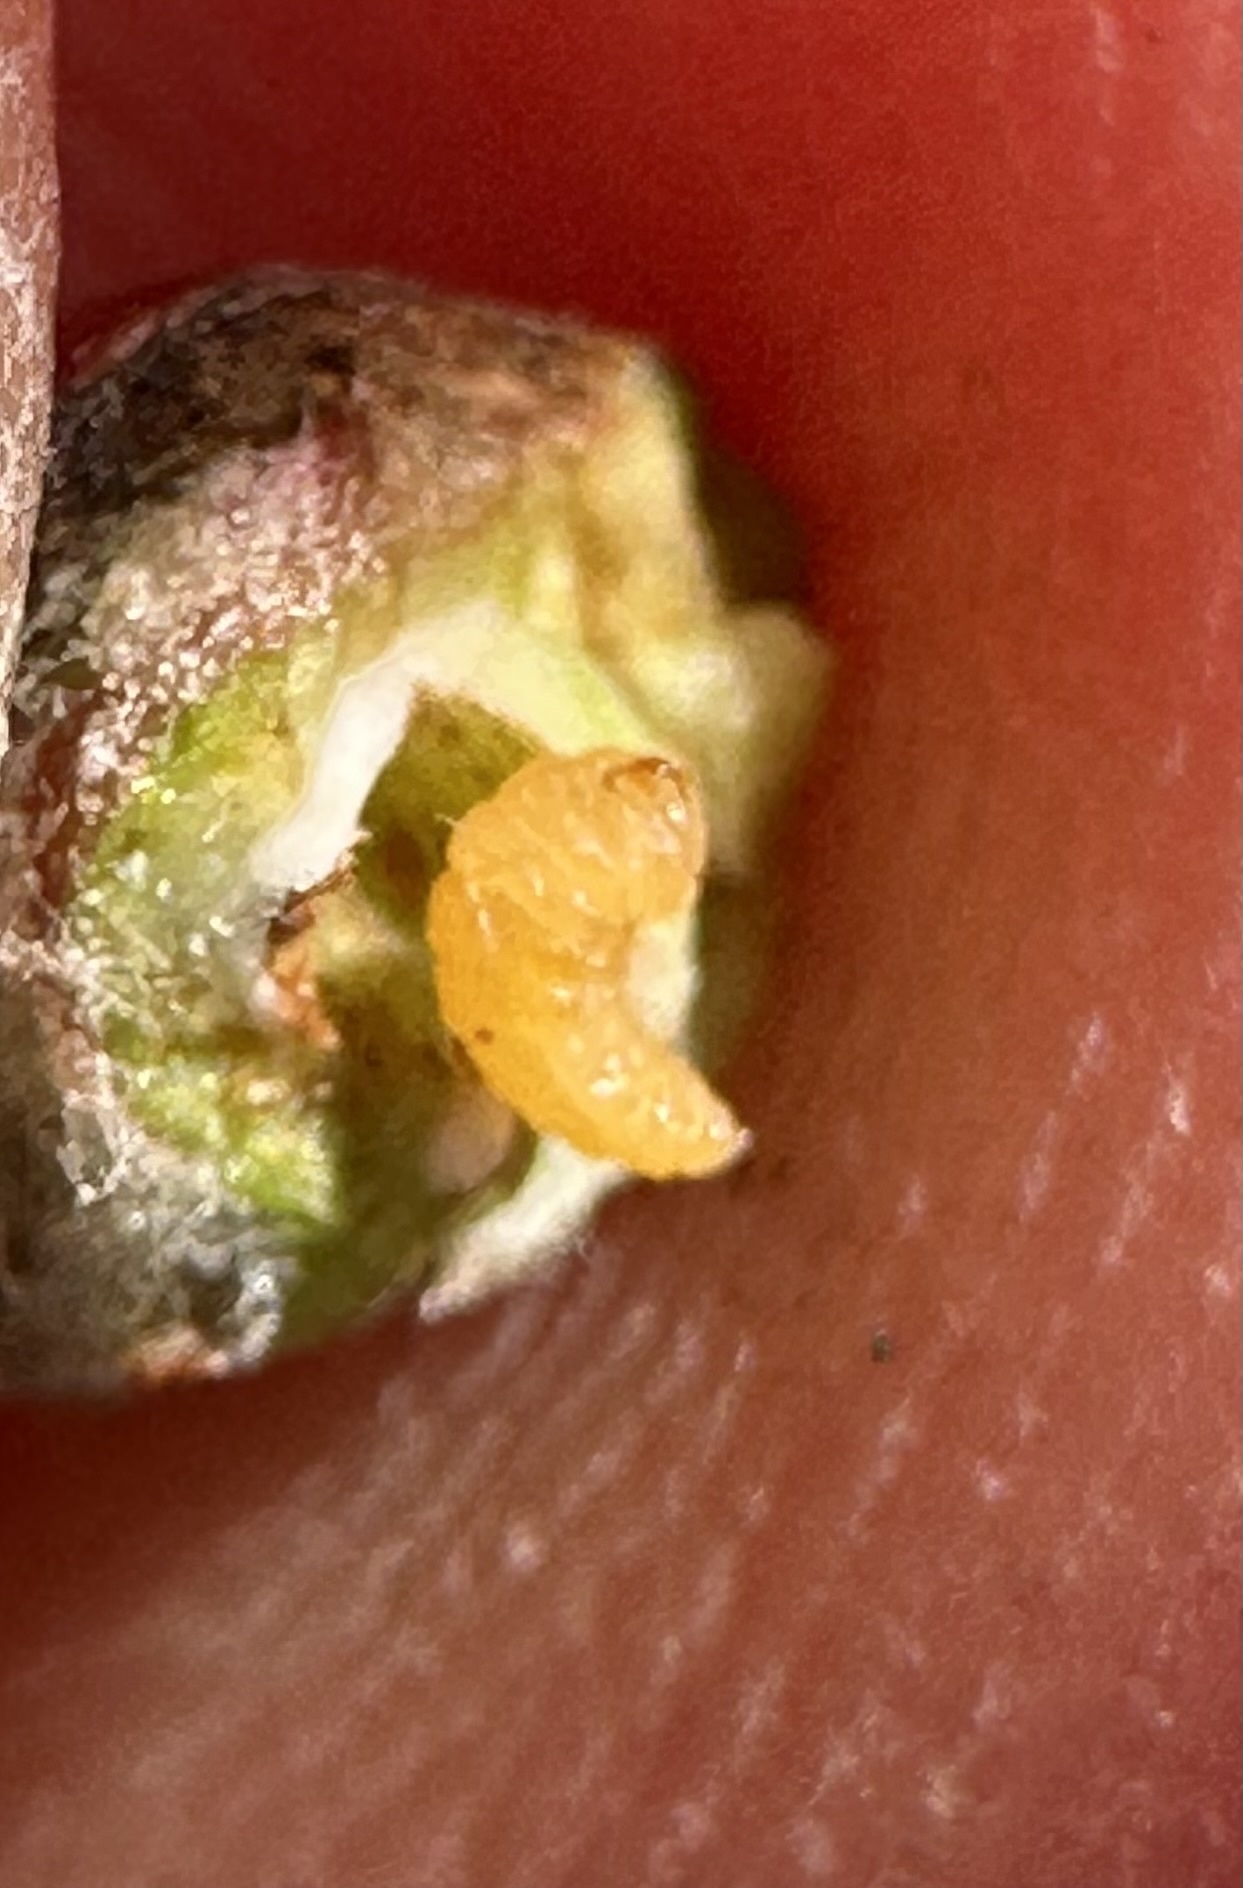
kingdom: Animalia
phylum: Arthropoda
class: Insecta
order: Diptera
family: Cecidomyiidae
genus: Asphondylia
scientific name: Asphondylia photiniae
